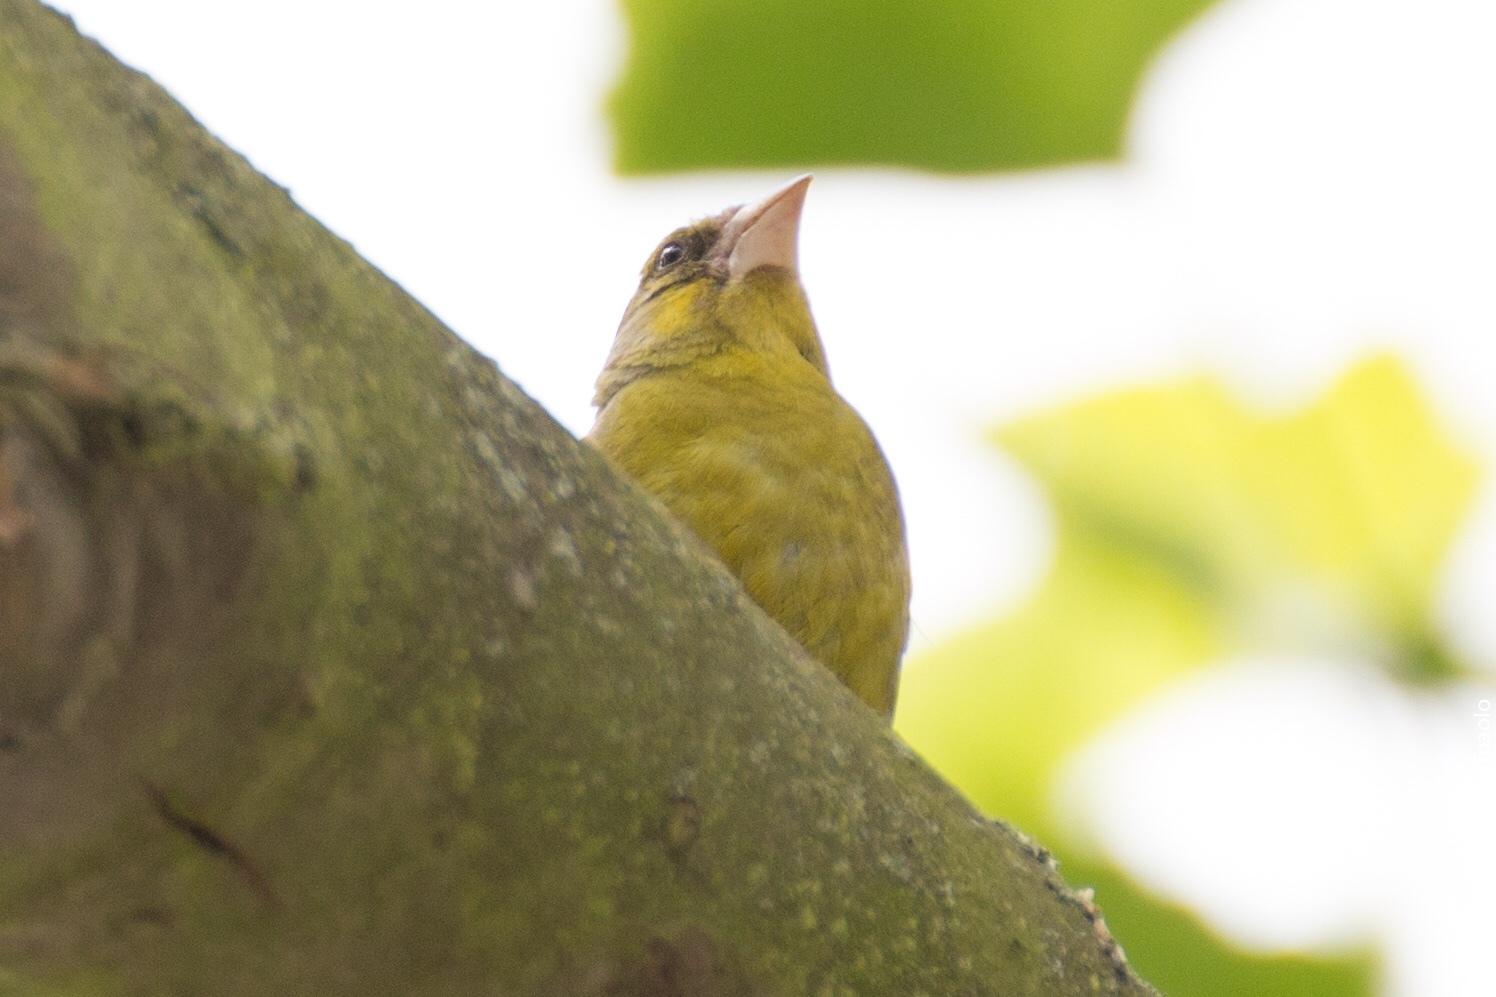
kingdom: Plantae
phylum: Tracheophyta
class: Liliopsida
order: Poales
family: Poaceae
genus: Chloris
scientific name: Chloris chloris
